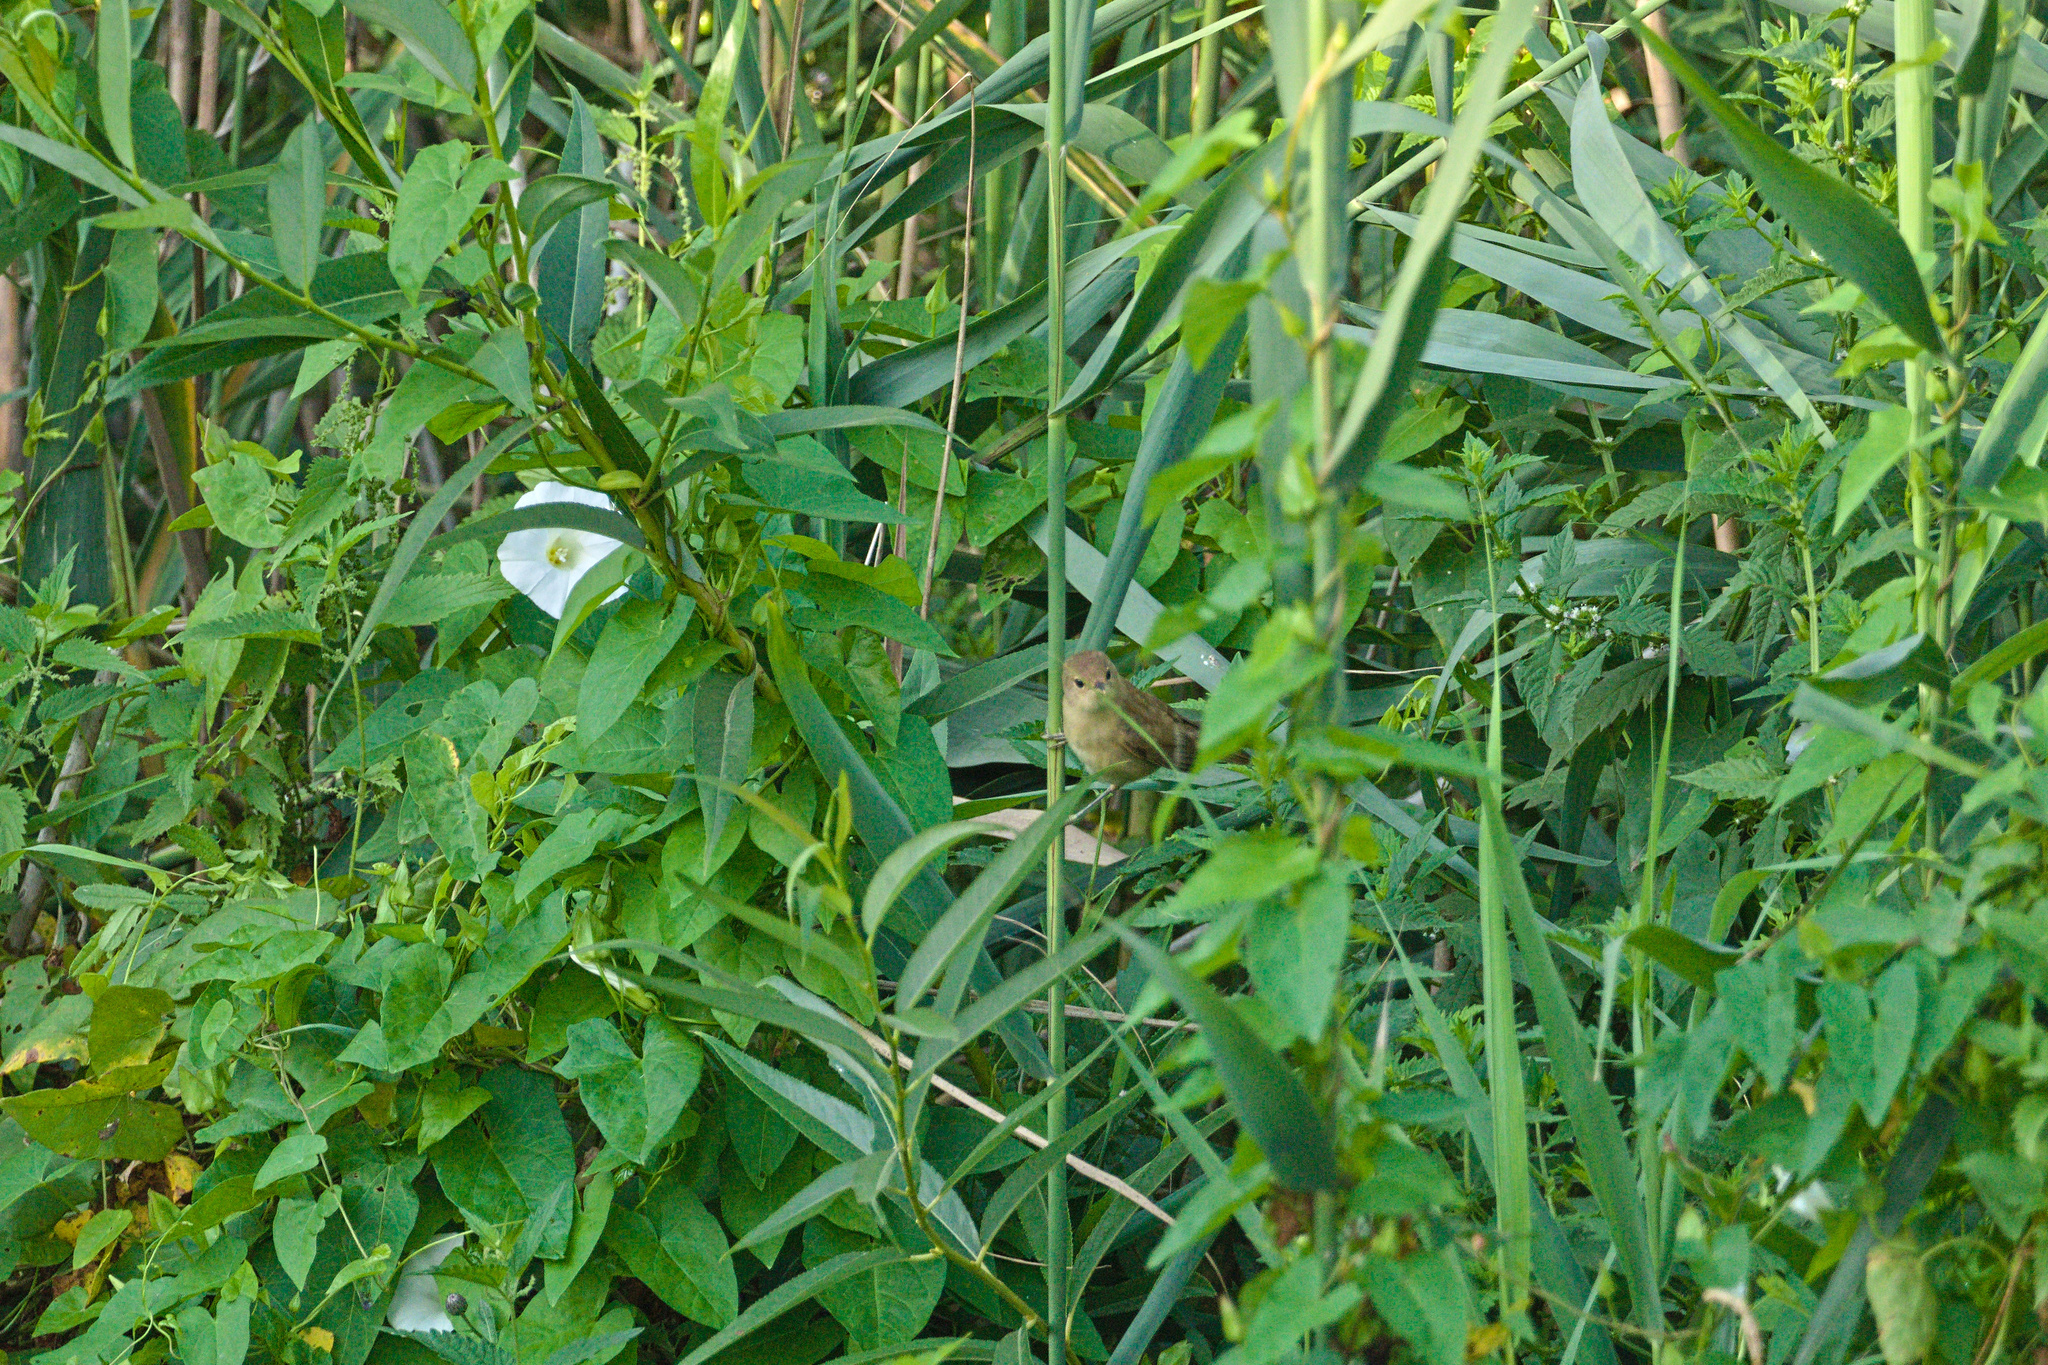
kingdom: Animalia
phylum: Chordata
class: Aves
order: Passeriformes
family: Acrocephalidae
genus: Acrocephalus
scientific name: Acrocephalus scirpaceus
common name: Eurasian reed warbler
